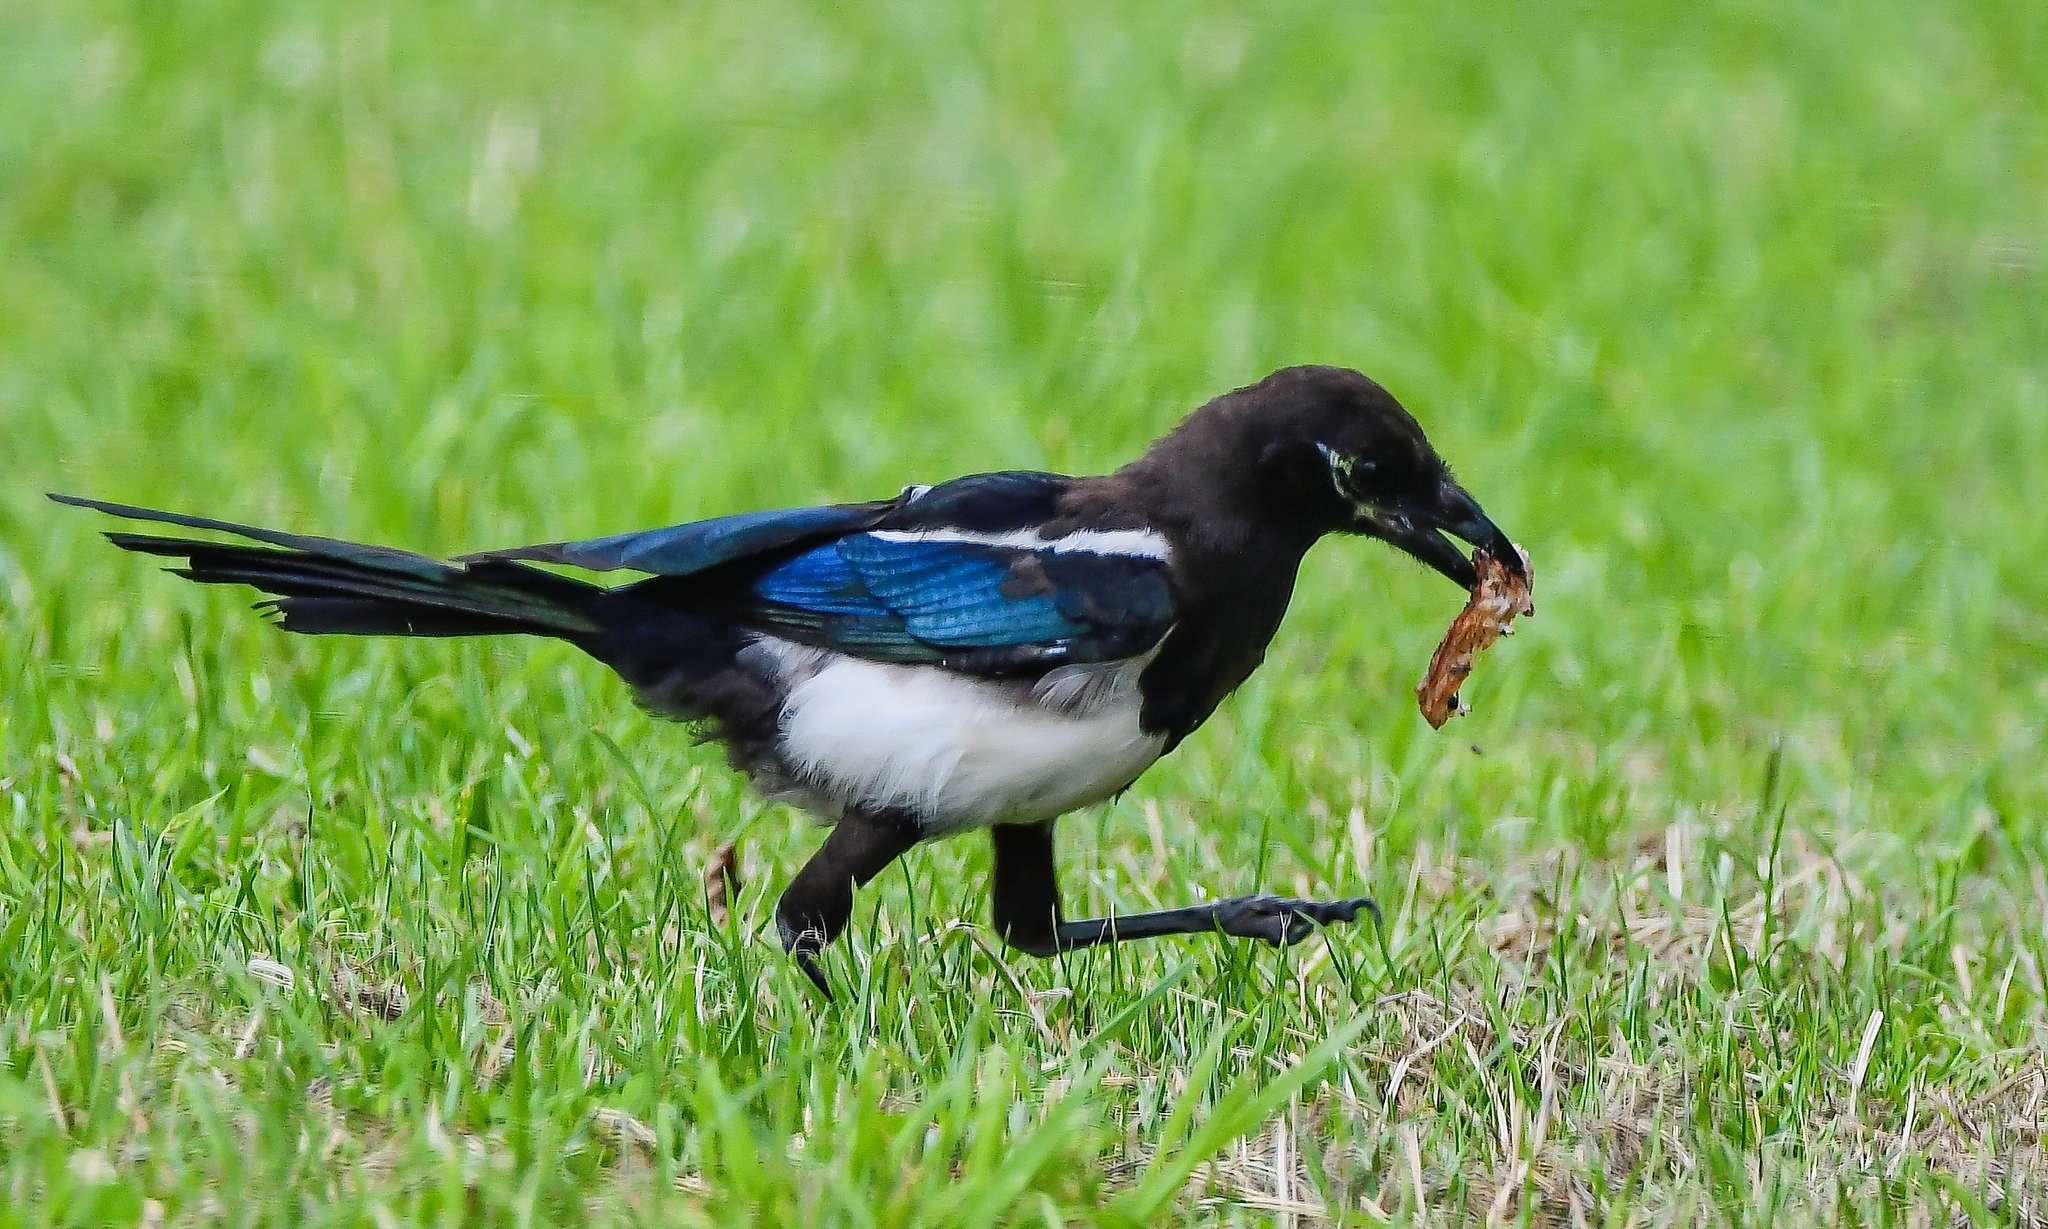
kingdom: Animalia
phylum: Chordata
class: Aves
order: Passeriformes
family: Corvidae
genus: Pica
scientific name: Pica pica
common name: Eurasian magpie
